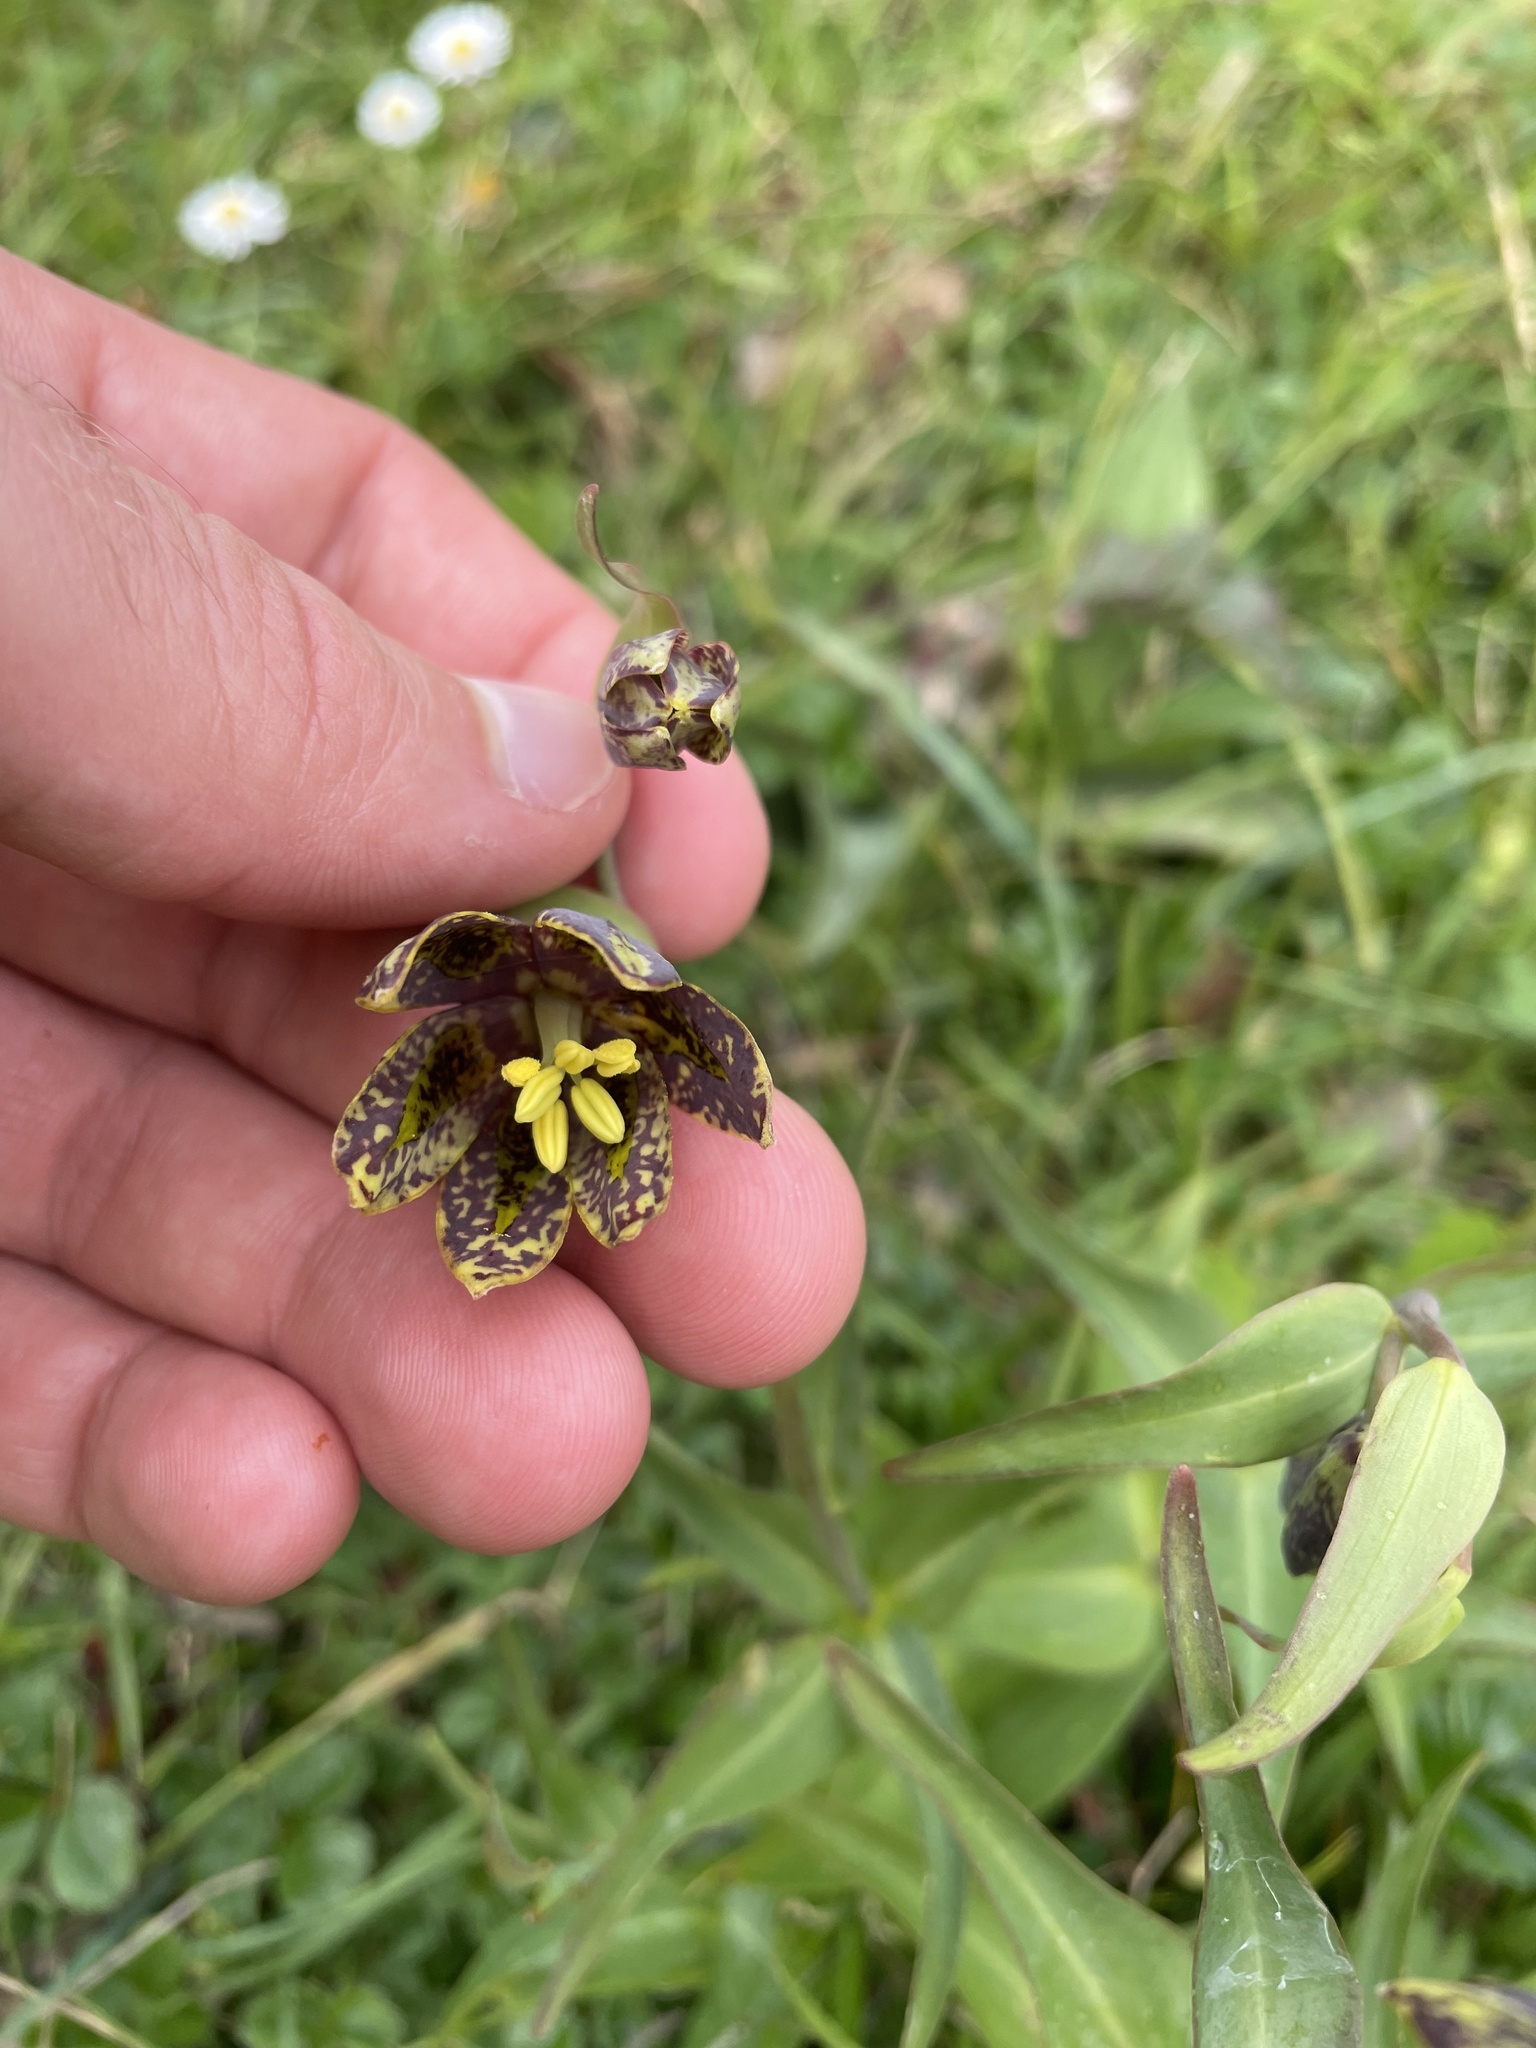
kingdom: Plantae
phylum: Tracheophyta
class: Liliopsida
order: Liliales
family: Liliaceae
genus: Fritillaria
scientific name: Fritillaria affinis
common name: Ojai fritillary
